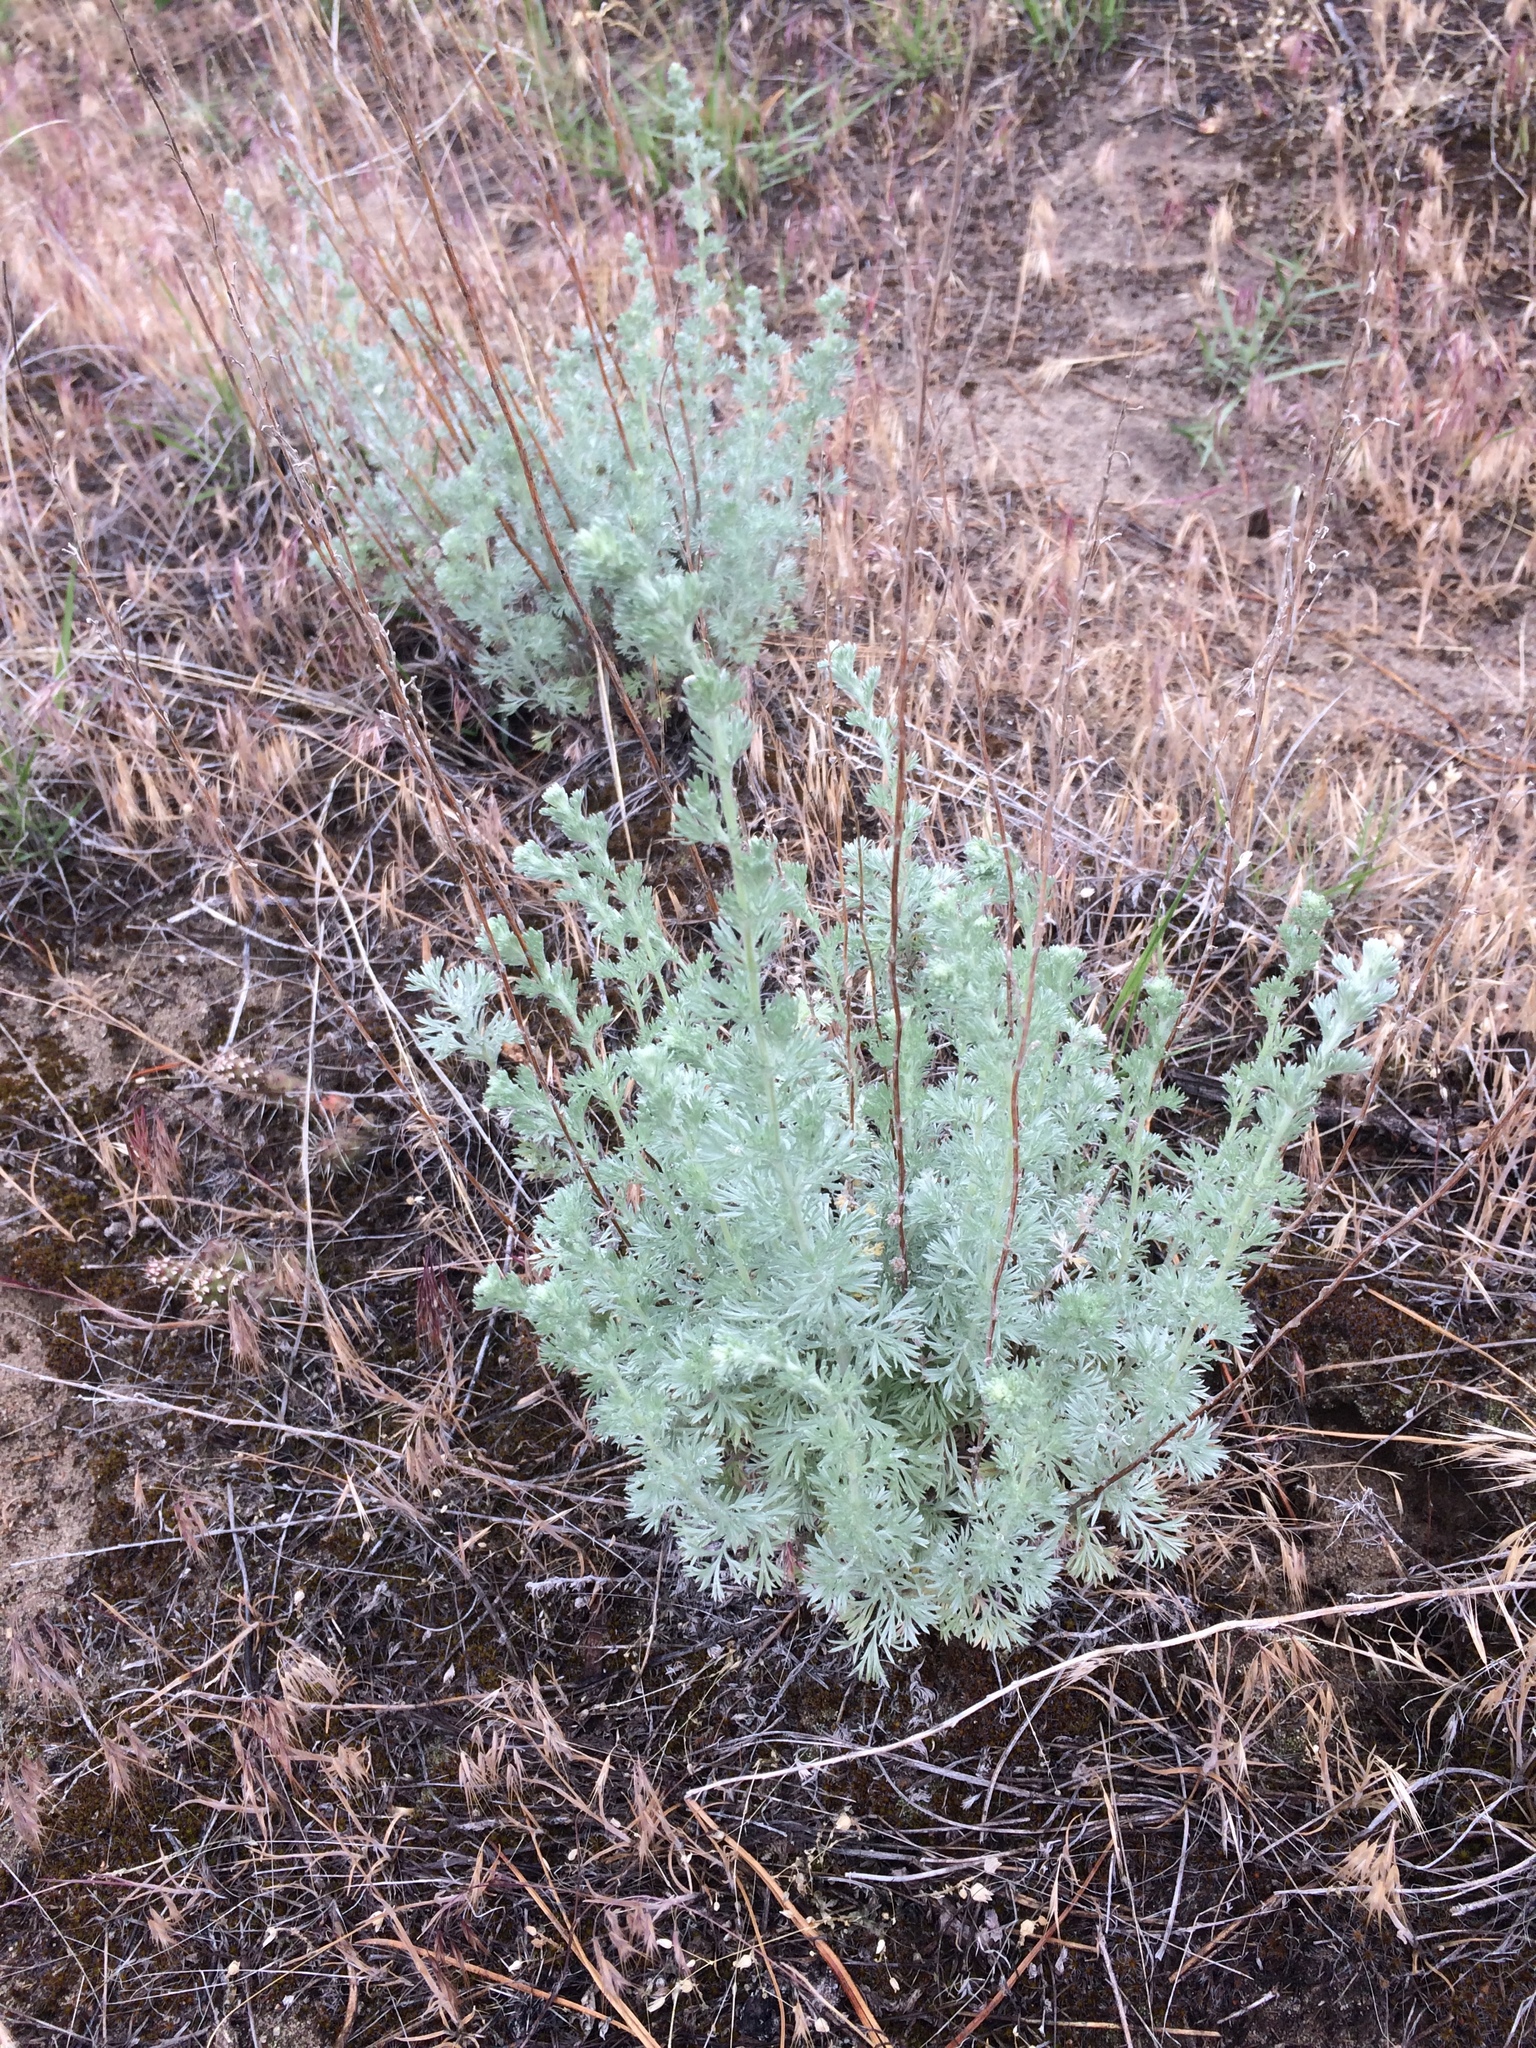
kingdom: Plantae
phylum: Tracheophyta
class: Magnoliopsida
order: Asterales
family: Asteraceae
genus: Artemisia
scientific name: Artemisia frigida
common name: Prairie sagewort
